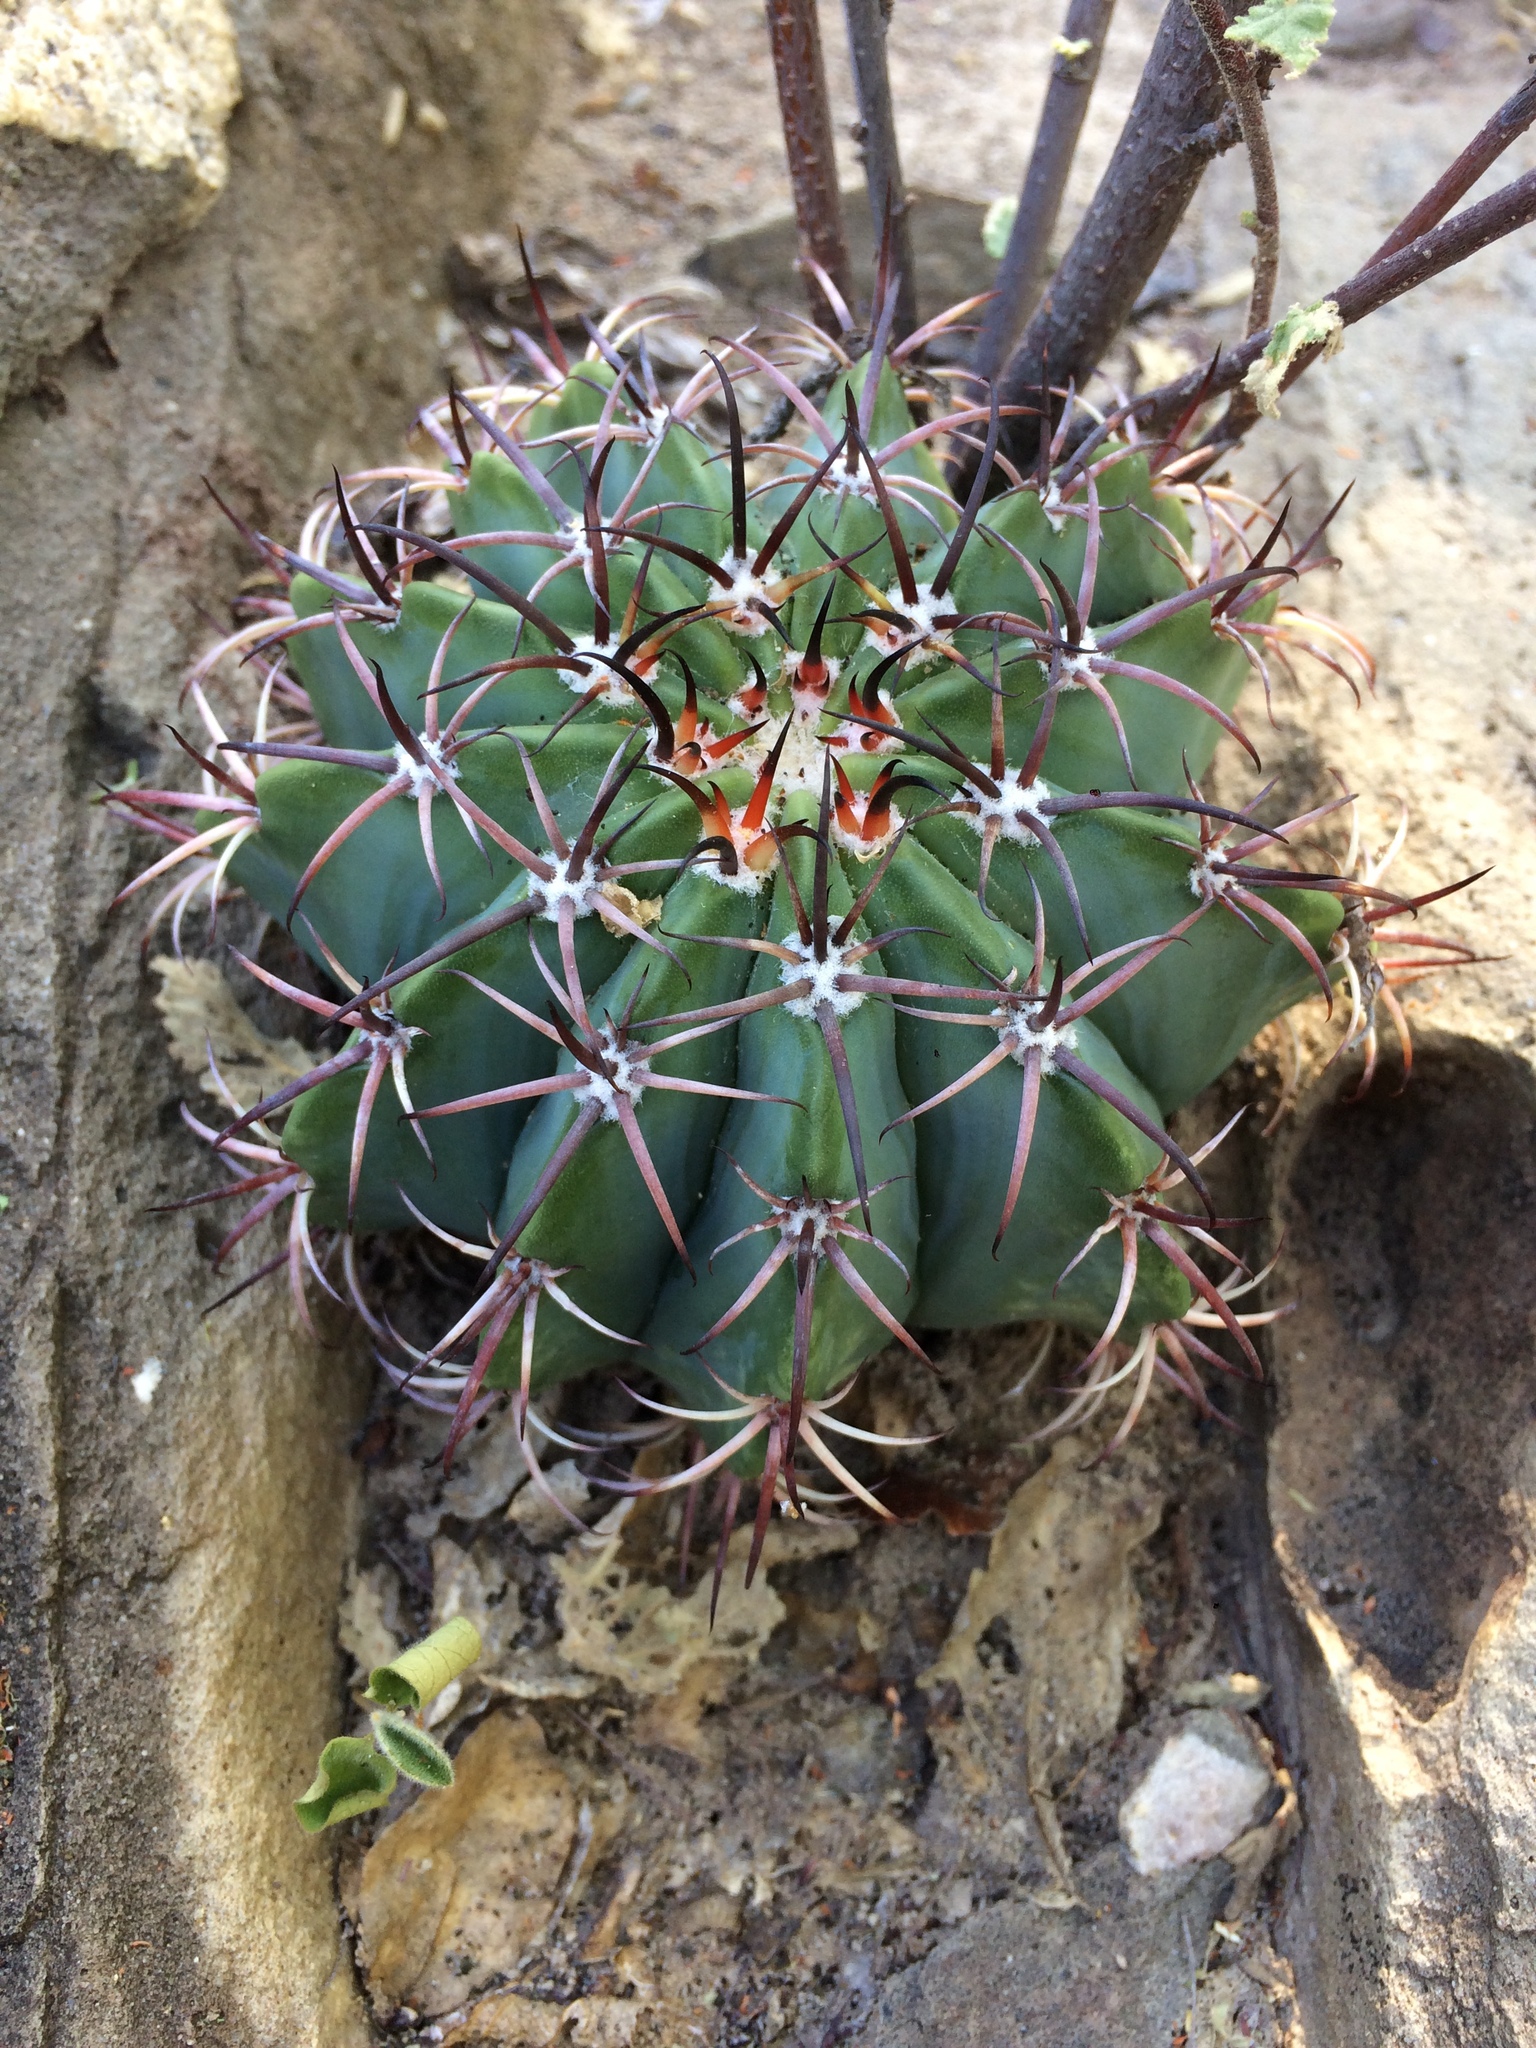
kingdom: Plantae
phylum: Tracheophyta
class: Magnoliopsida
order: Caryophyllales
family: Cactaceae
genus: Melocactus
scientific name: Melocactus pachyacanthus
